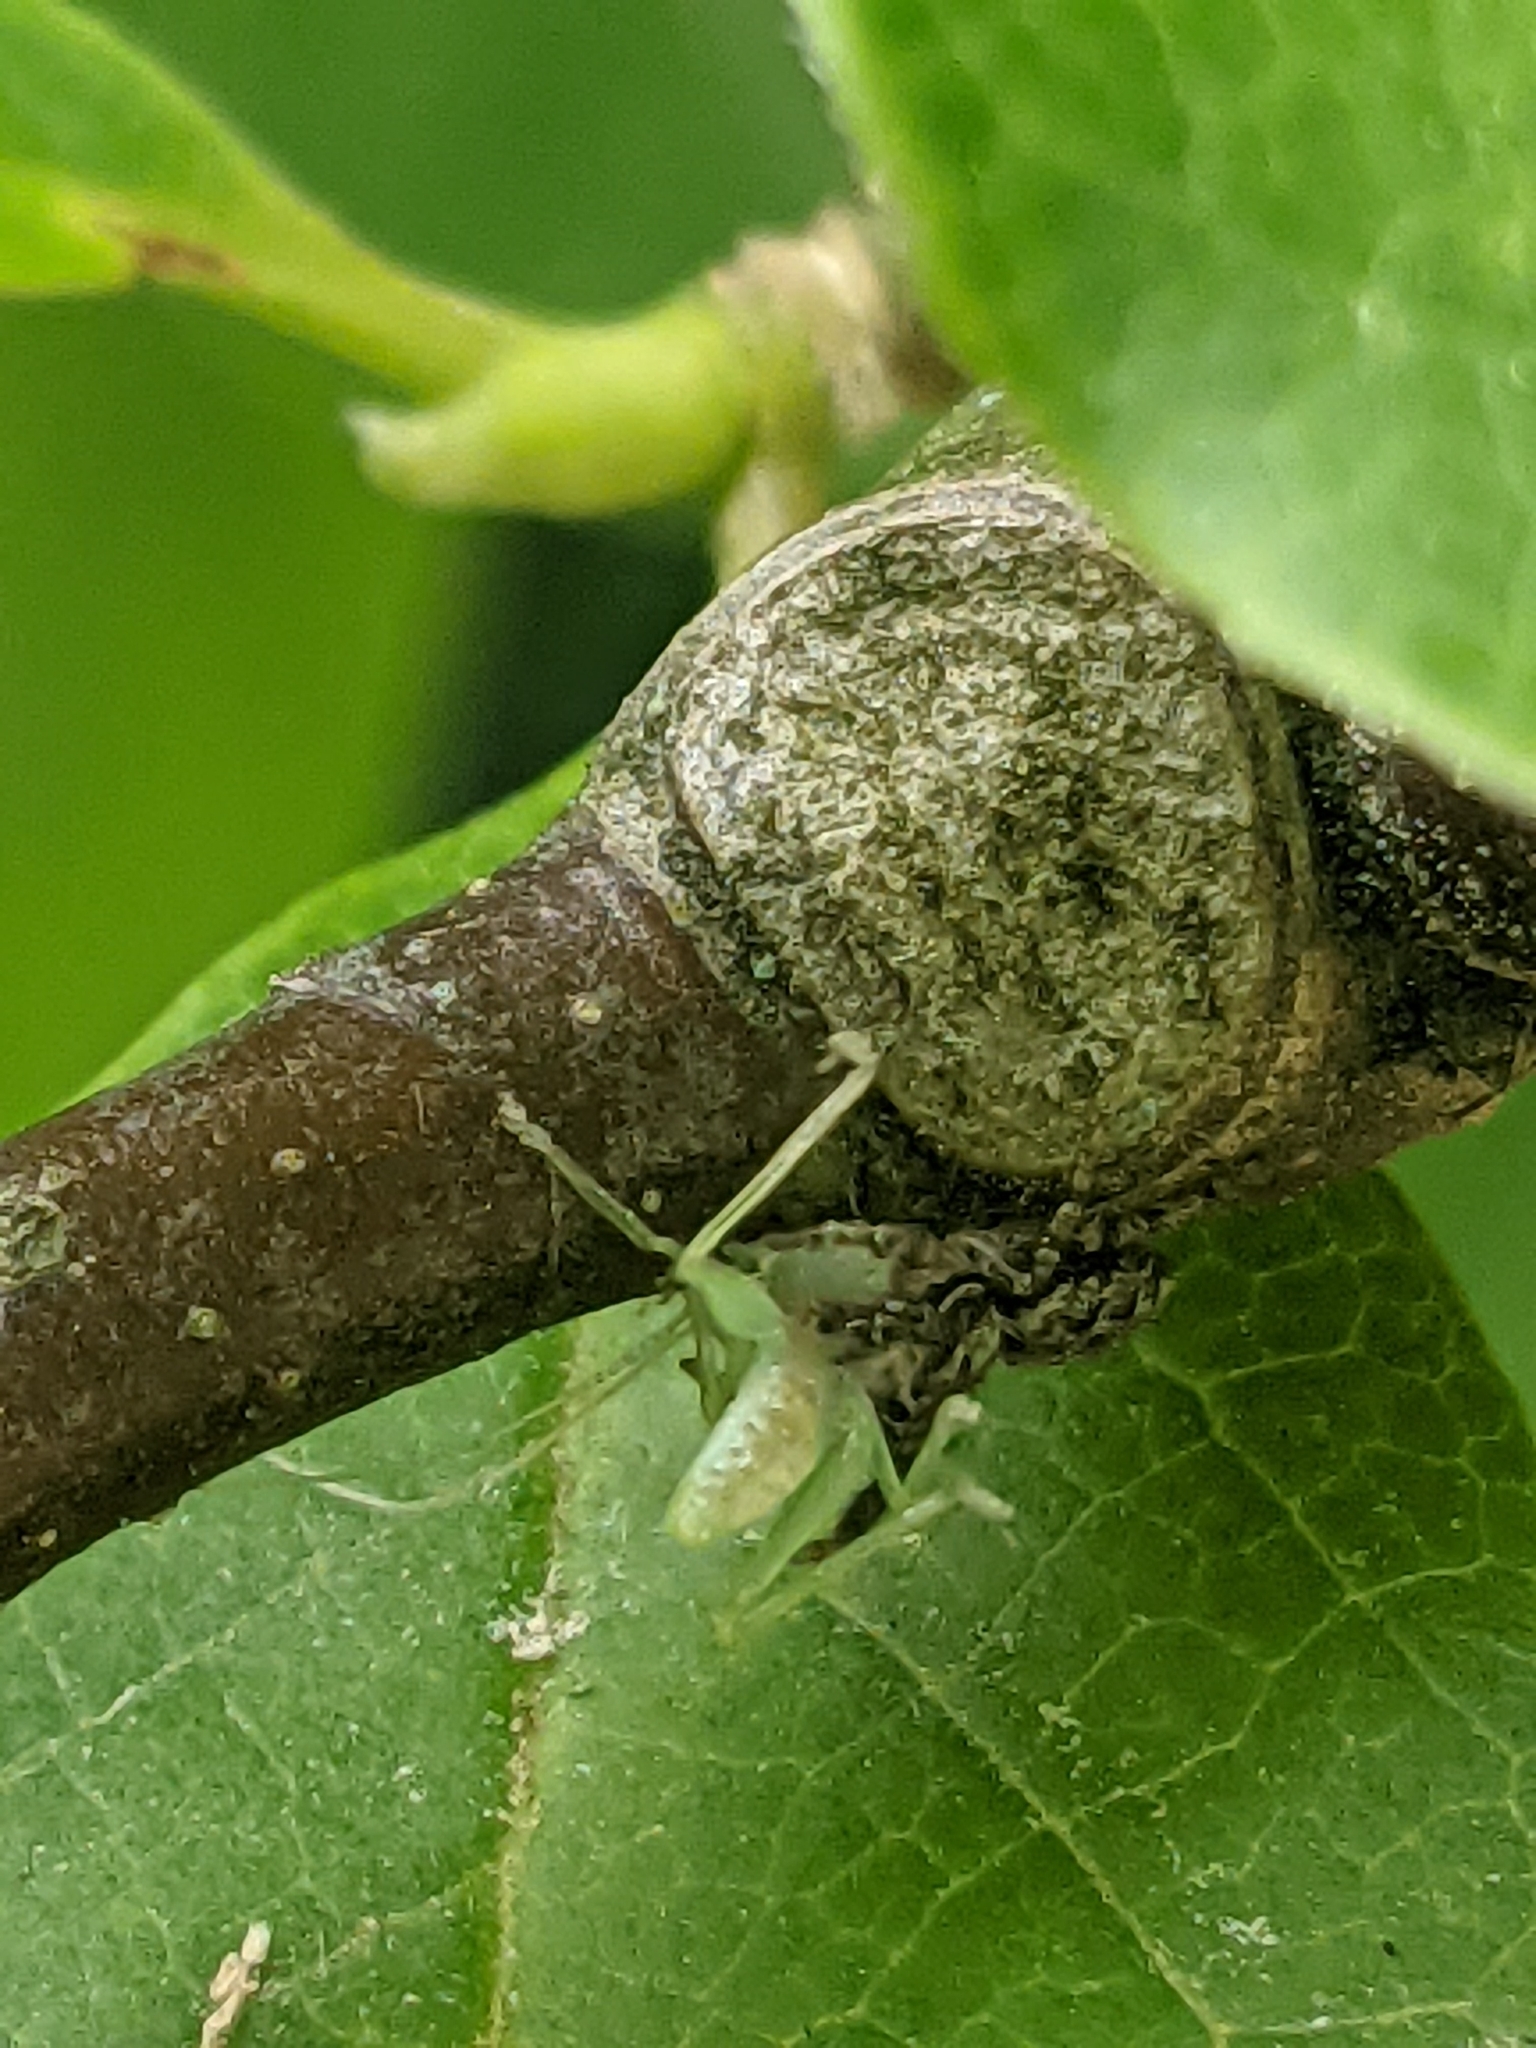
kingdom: Animalia
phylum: Arthropoda
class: Arachnida
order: Araneae
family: Salticidae
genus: Marpissa
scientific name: Marpissa muscosa
